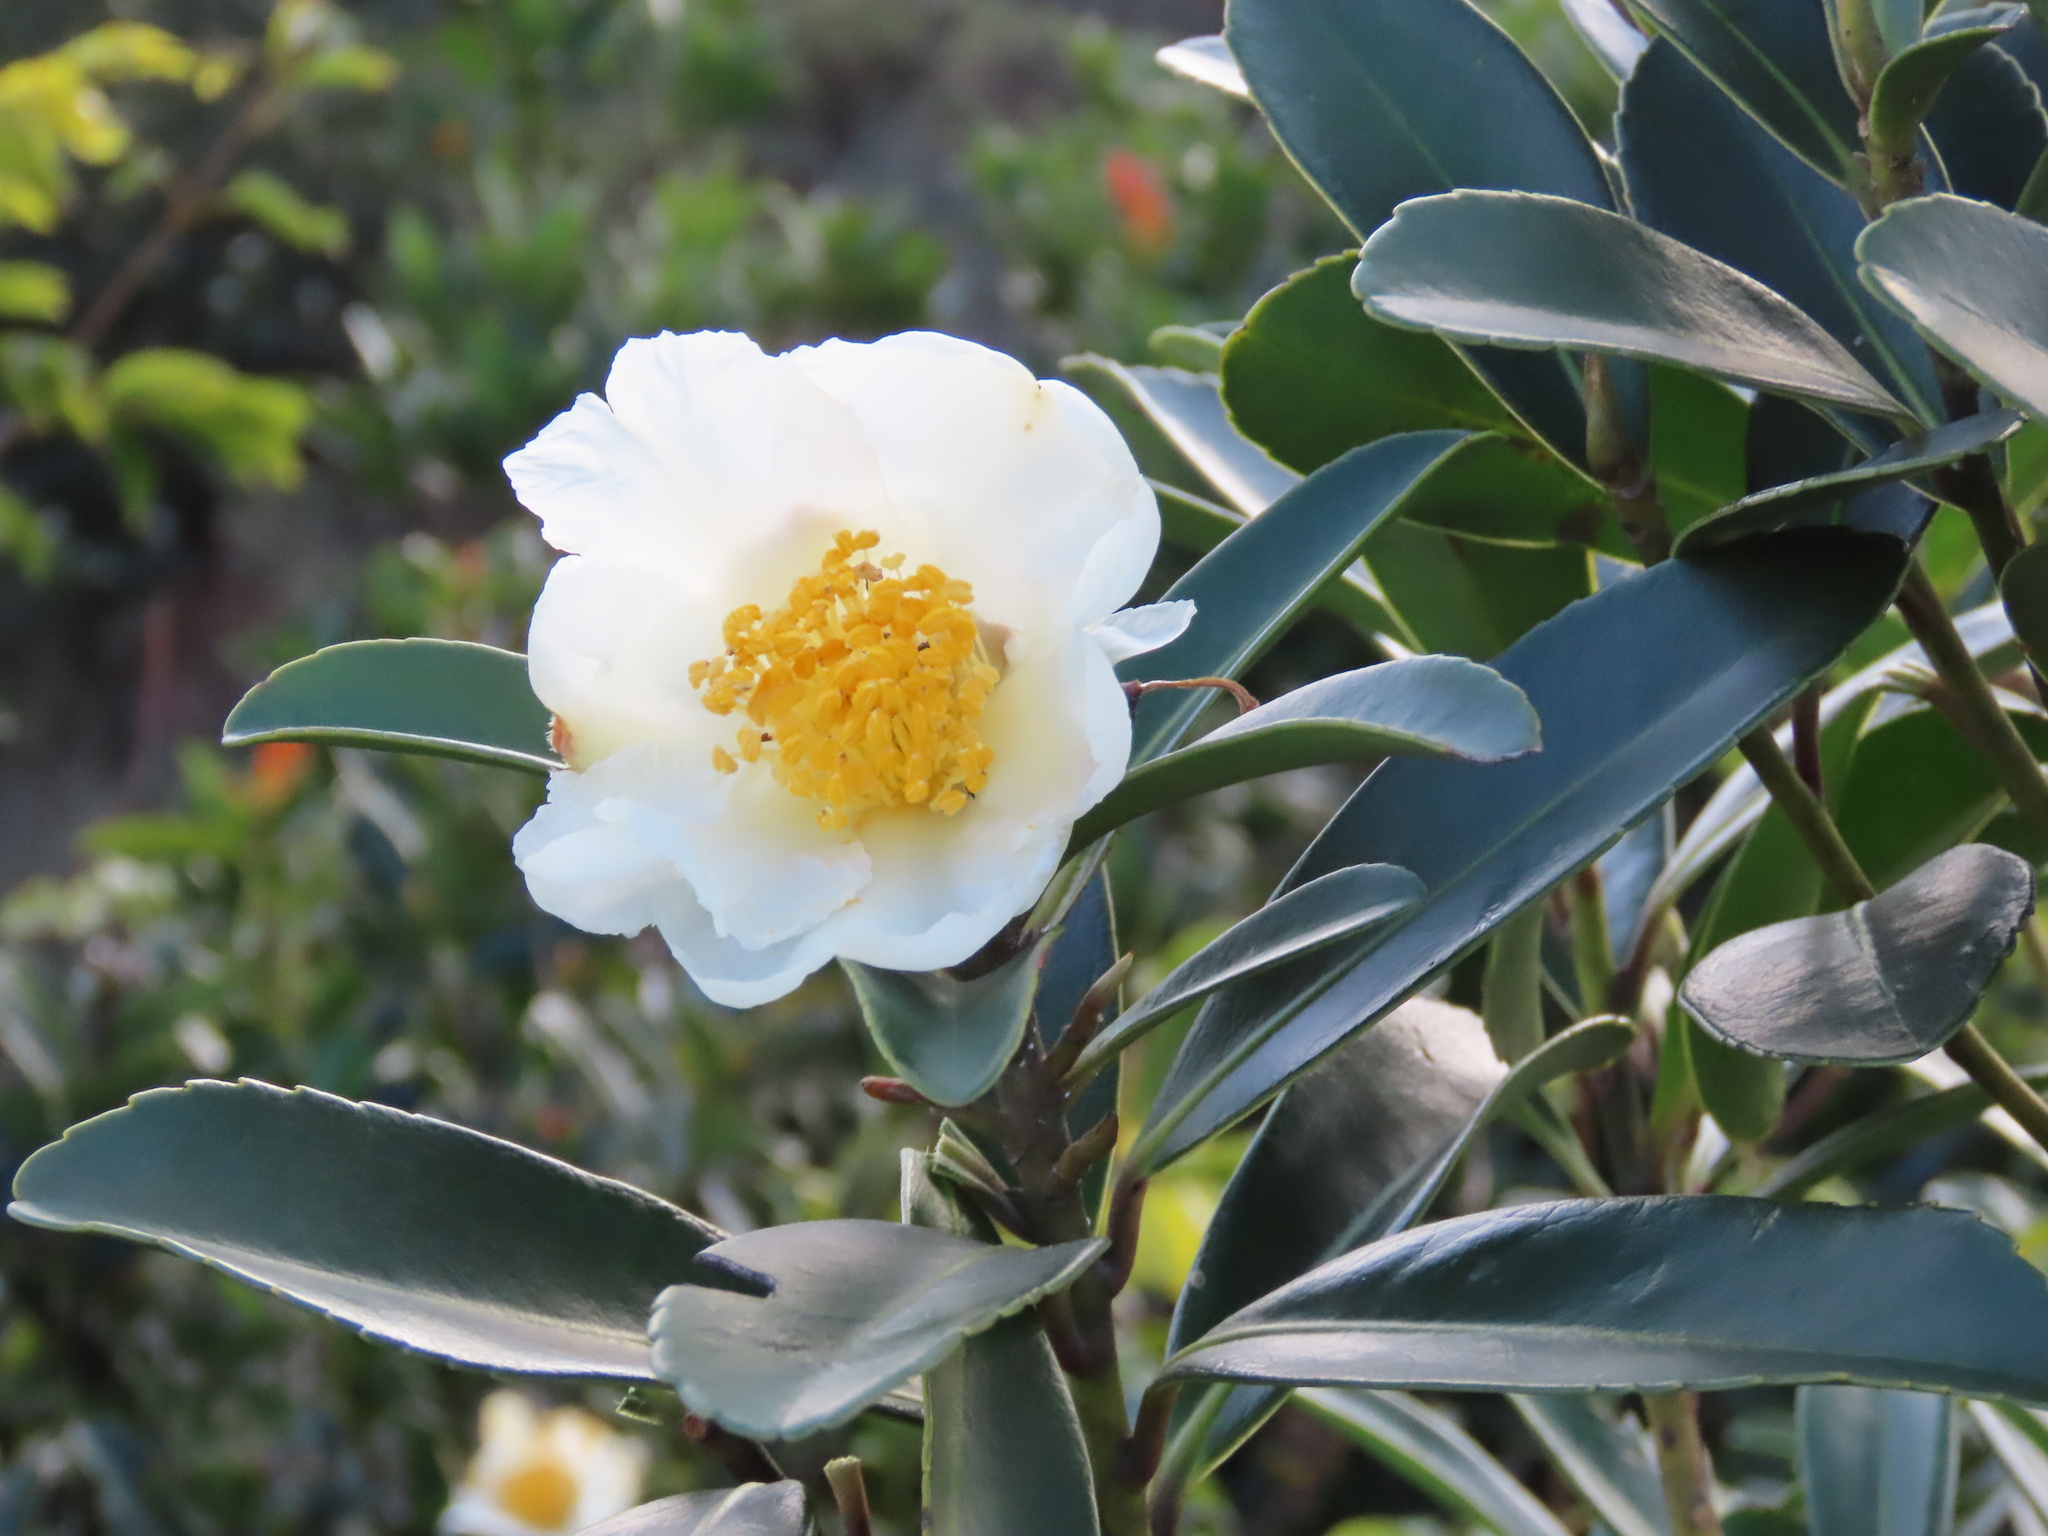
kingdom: Plantae
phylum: Tracheophyta
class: Magnoliopsida
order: Ericales
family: Theaceae
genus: Polyspora
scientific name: Polyspora axillaris
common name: Fried egg tree
